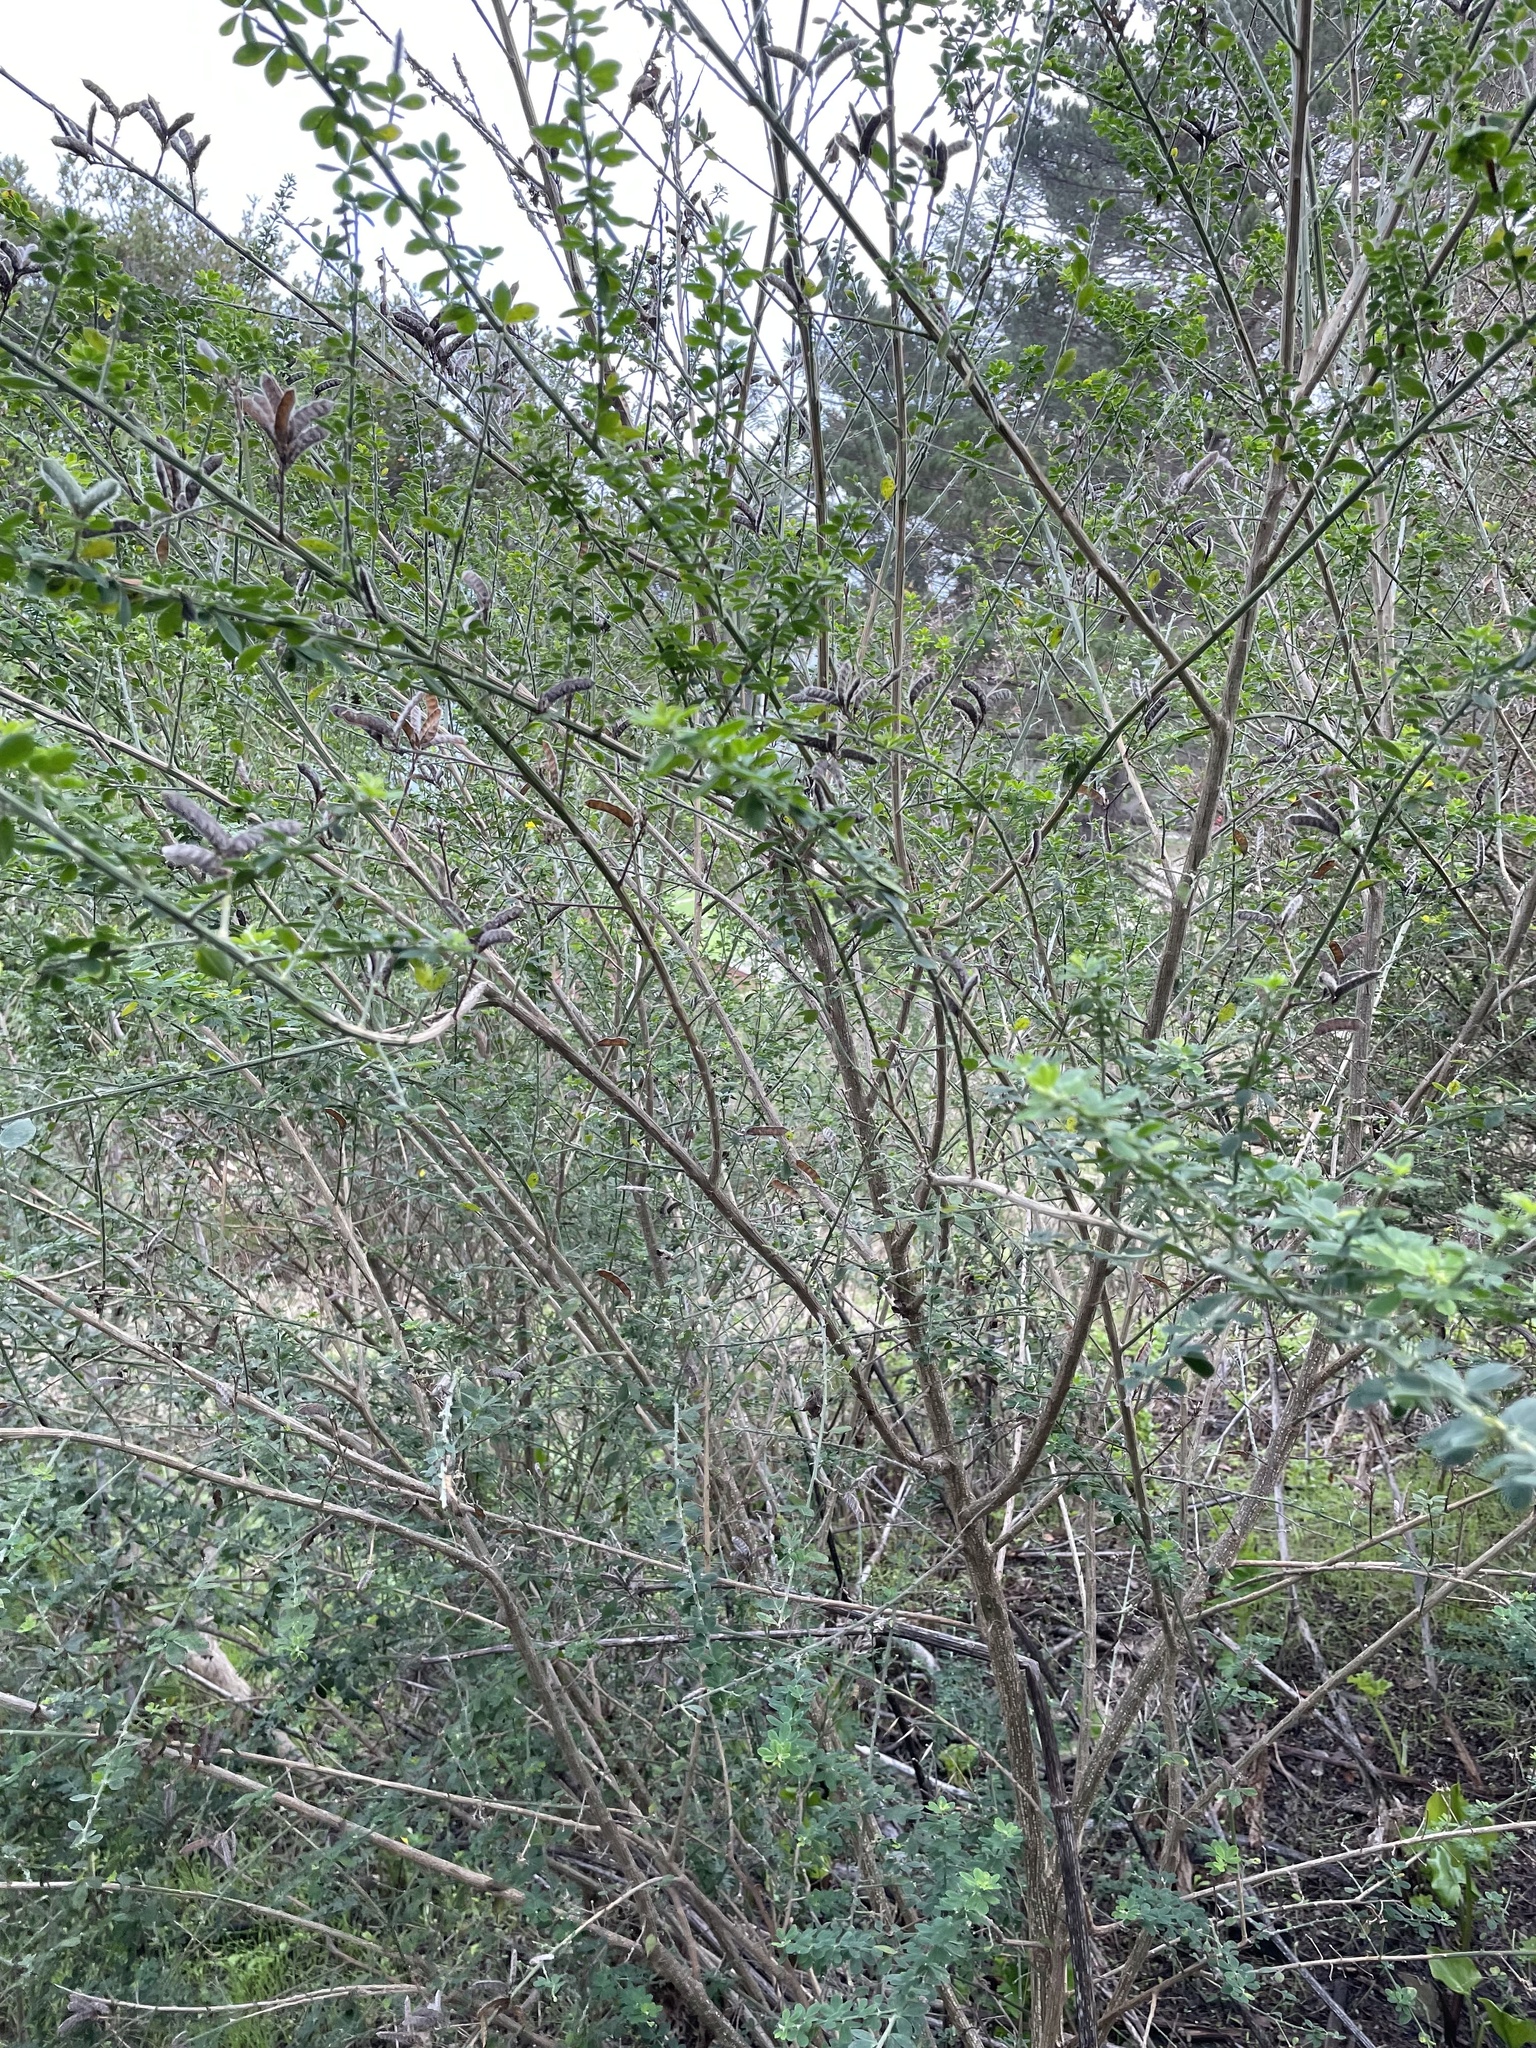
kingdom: Plantae
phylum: Tracheophyta
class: Magnoliopsida
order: Fabales
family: Fabaceae
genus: Genista
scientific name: Genista monspessulana
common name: Montpellier broom
